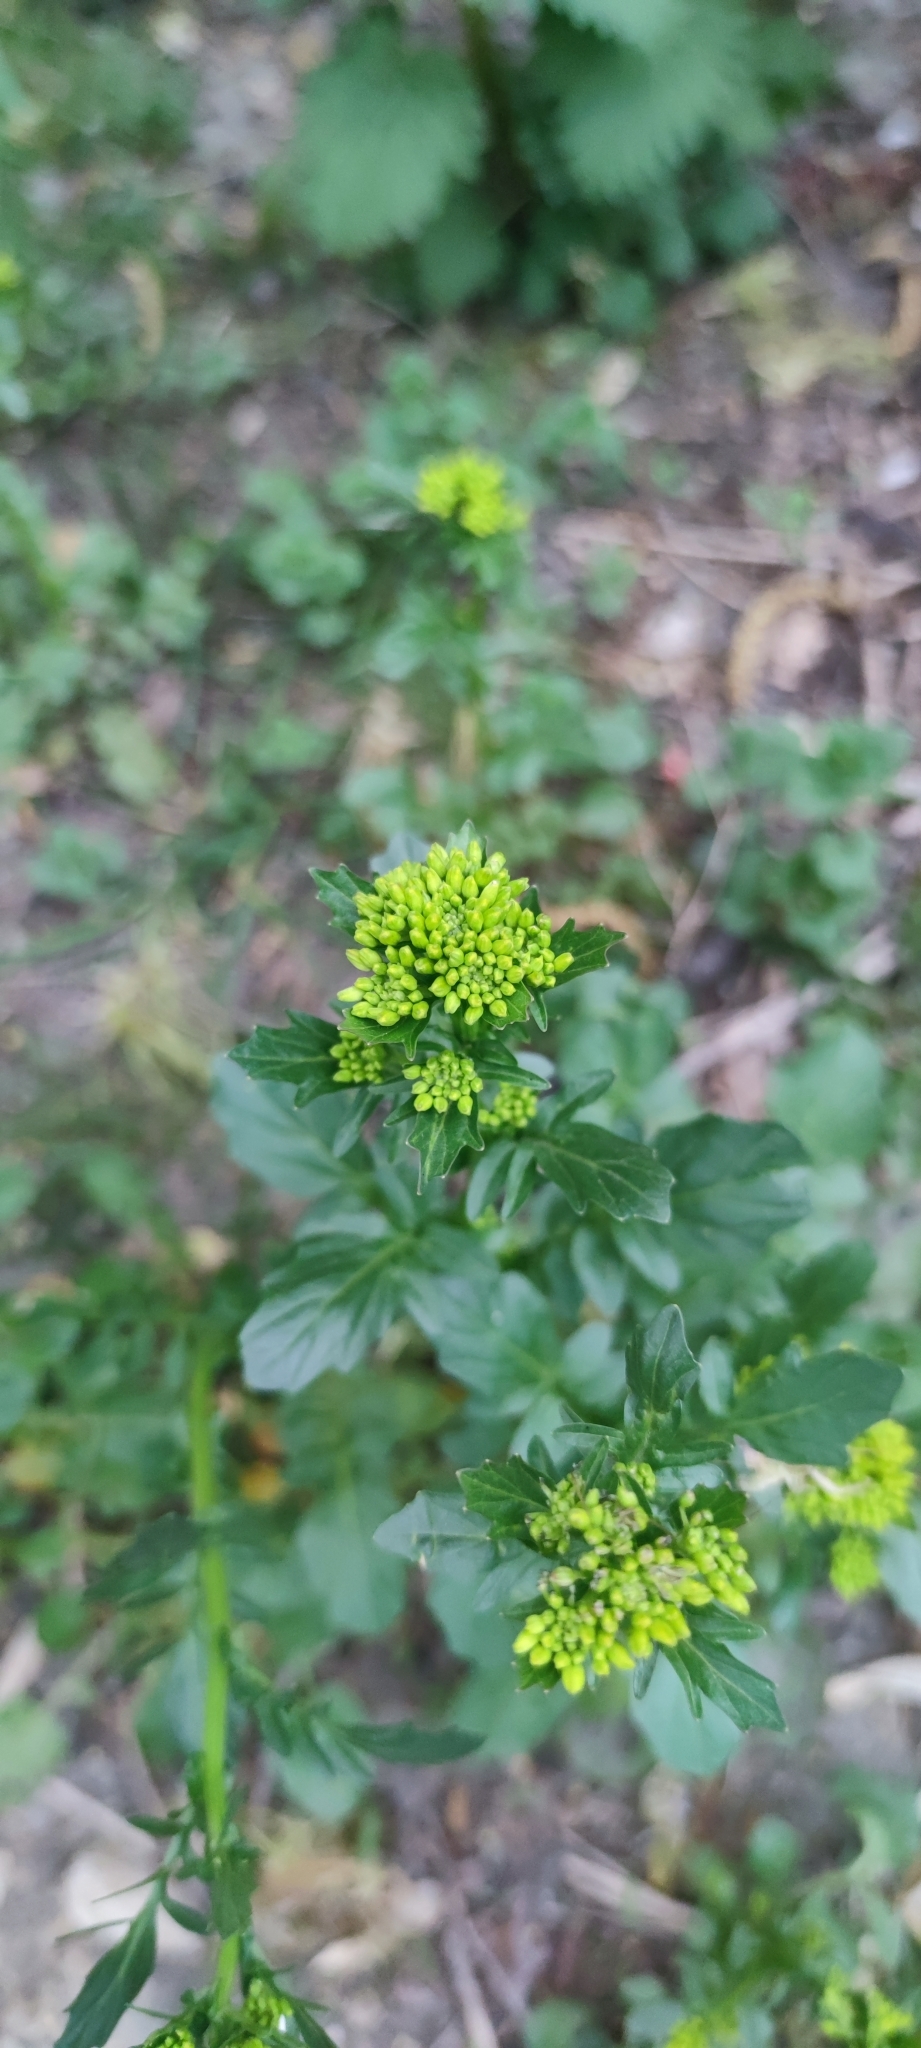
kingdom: Plantae
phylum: Tracheophyta
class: Magnoliopsida
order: Brassicales
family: Brassicaceae
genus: Barbarea
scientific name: Barbarea vulgaris
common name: Cressy-greens
